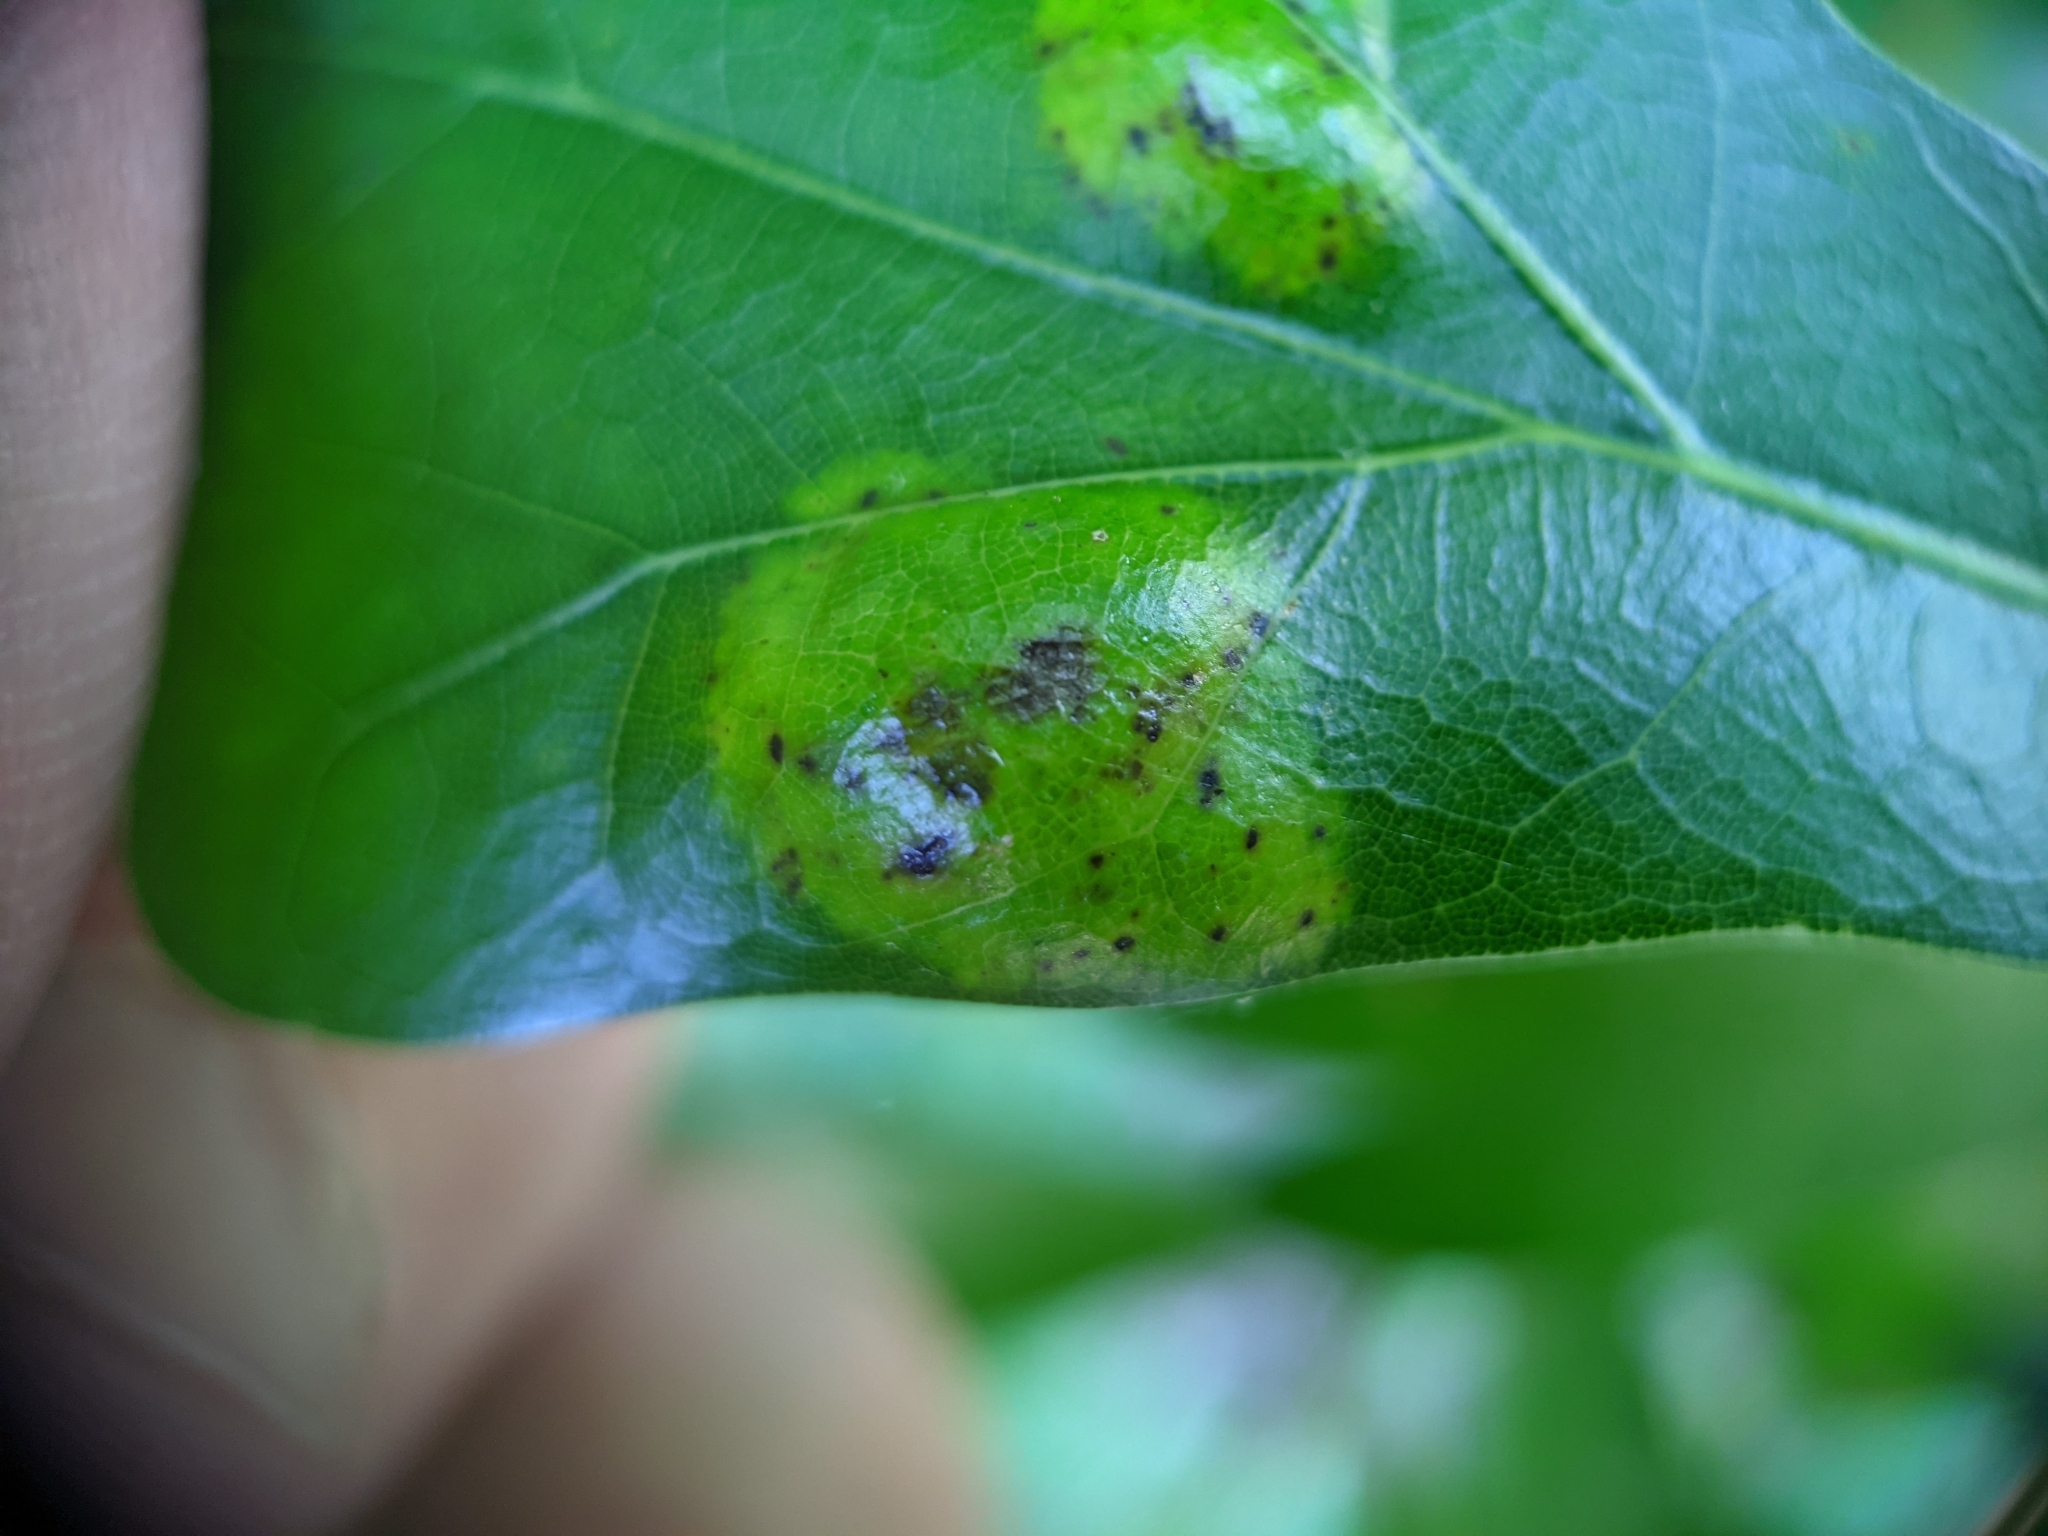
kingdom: Fungi
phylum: Ascomycota
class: Taphrinomycetes
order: Taphrinales
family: Taphrinaceae
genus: Taphrina
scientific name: Taphrina caerulescens
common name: Oak leaf blister
